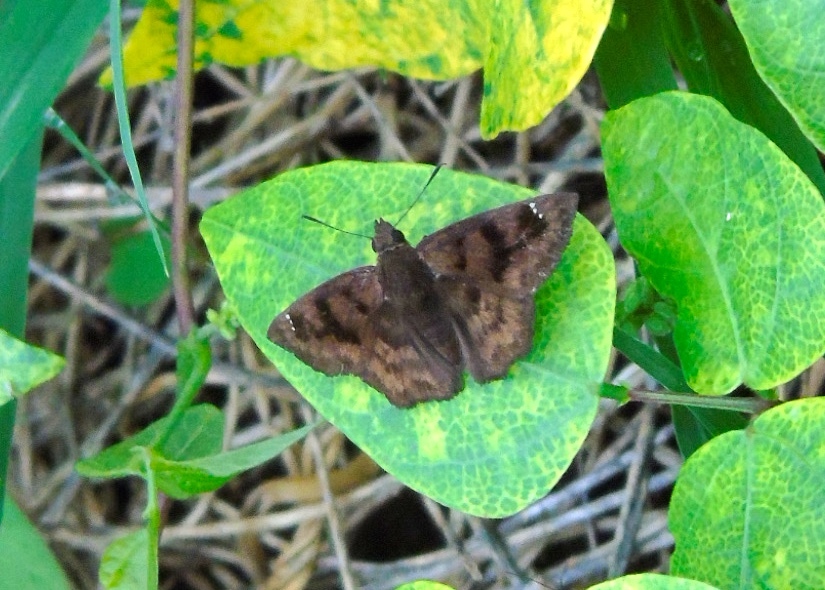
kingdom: Animalia
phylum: Arthropoda
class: Insecta
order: Lepidoptera
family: Hesperiidae
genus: Nisoniades
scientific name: Nisoniades
